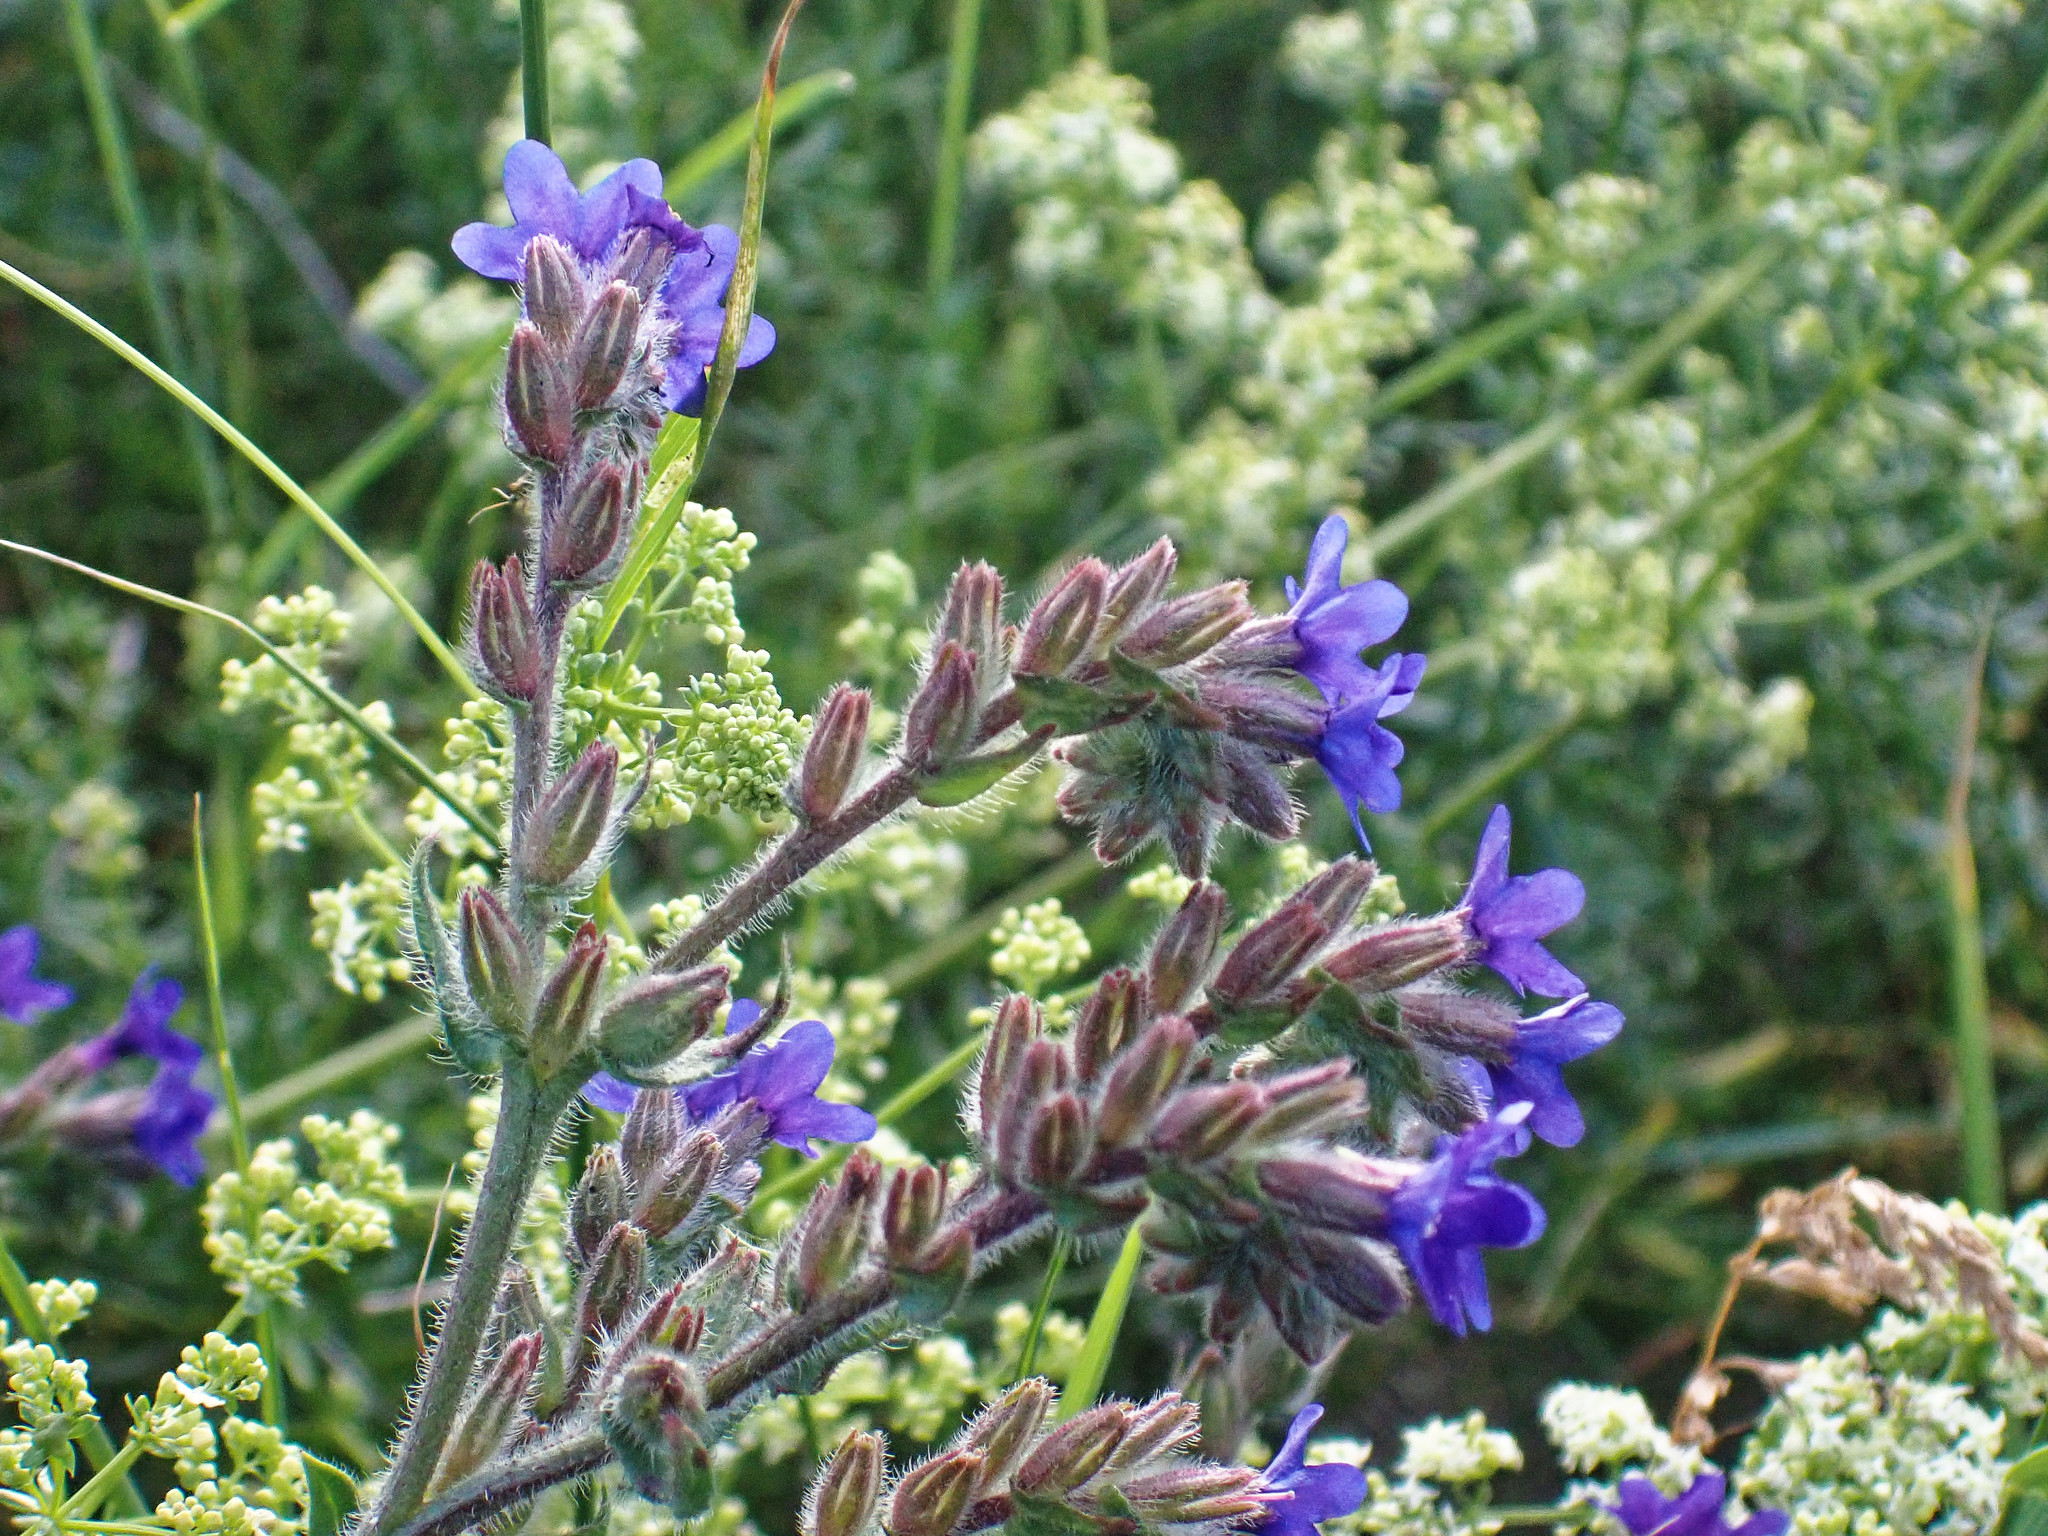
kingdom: Plantae
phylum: Tracheophyta
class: Magnoliopsida
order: Boraginales
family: Boraginaceae
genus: Anchusa
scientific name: Anchusa officinalis
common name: Alkanet
